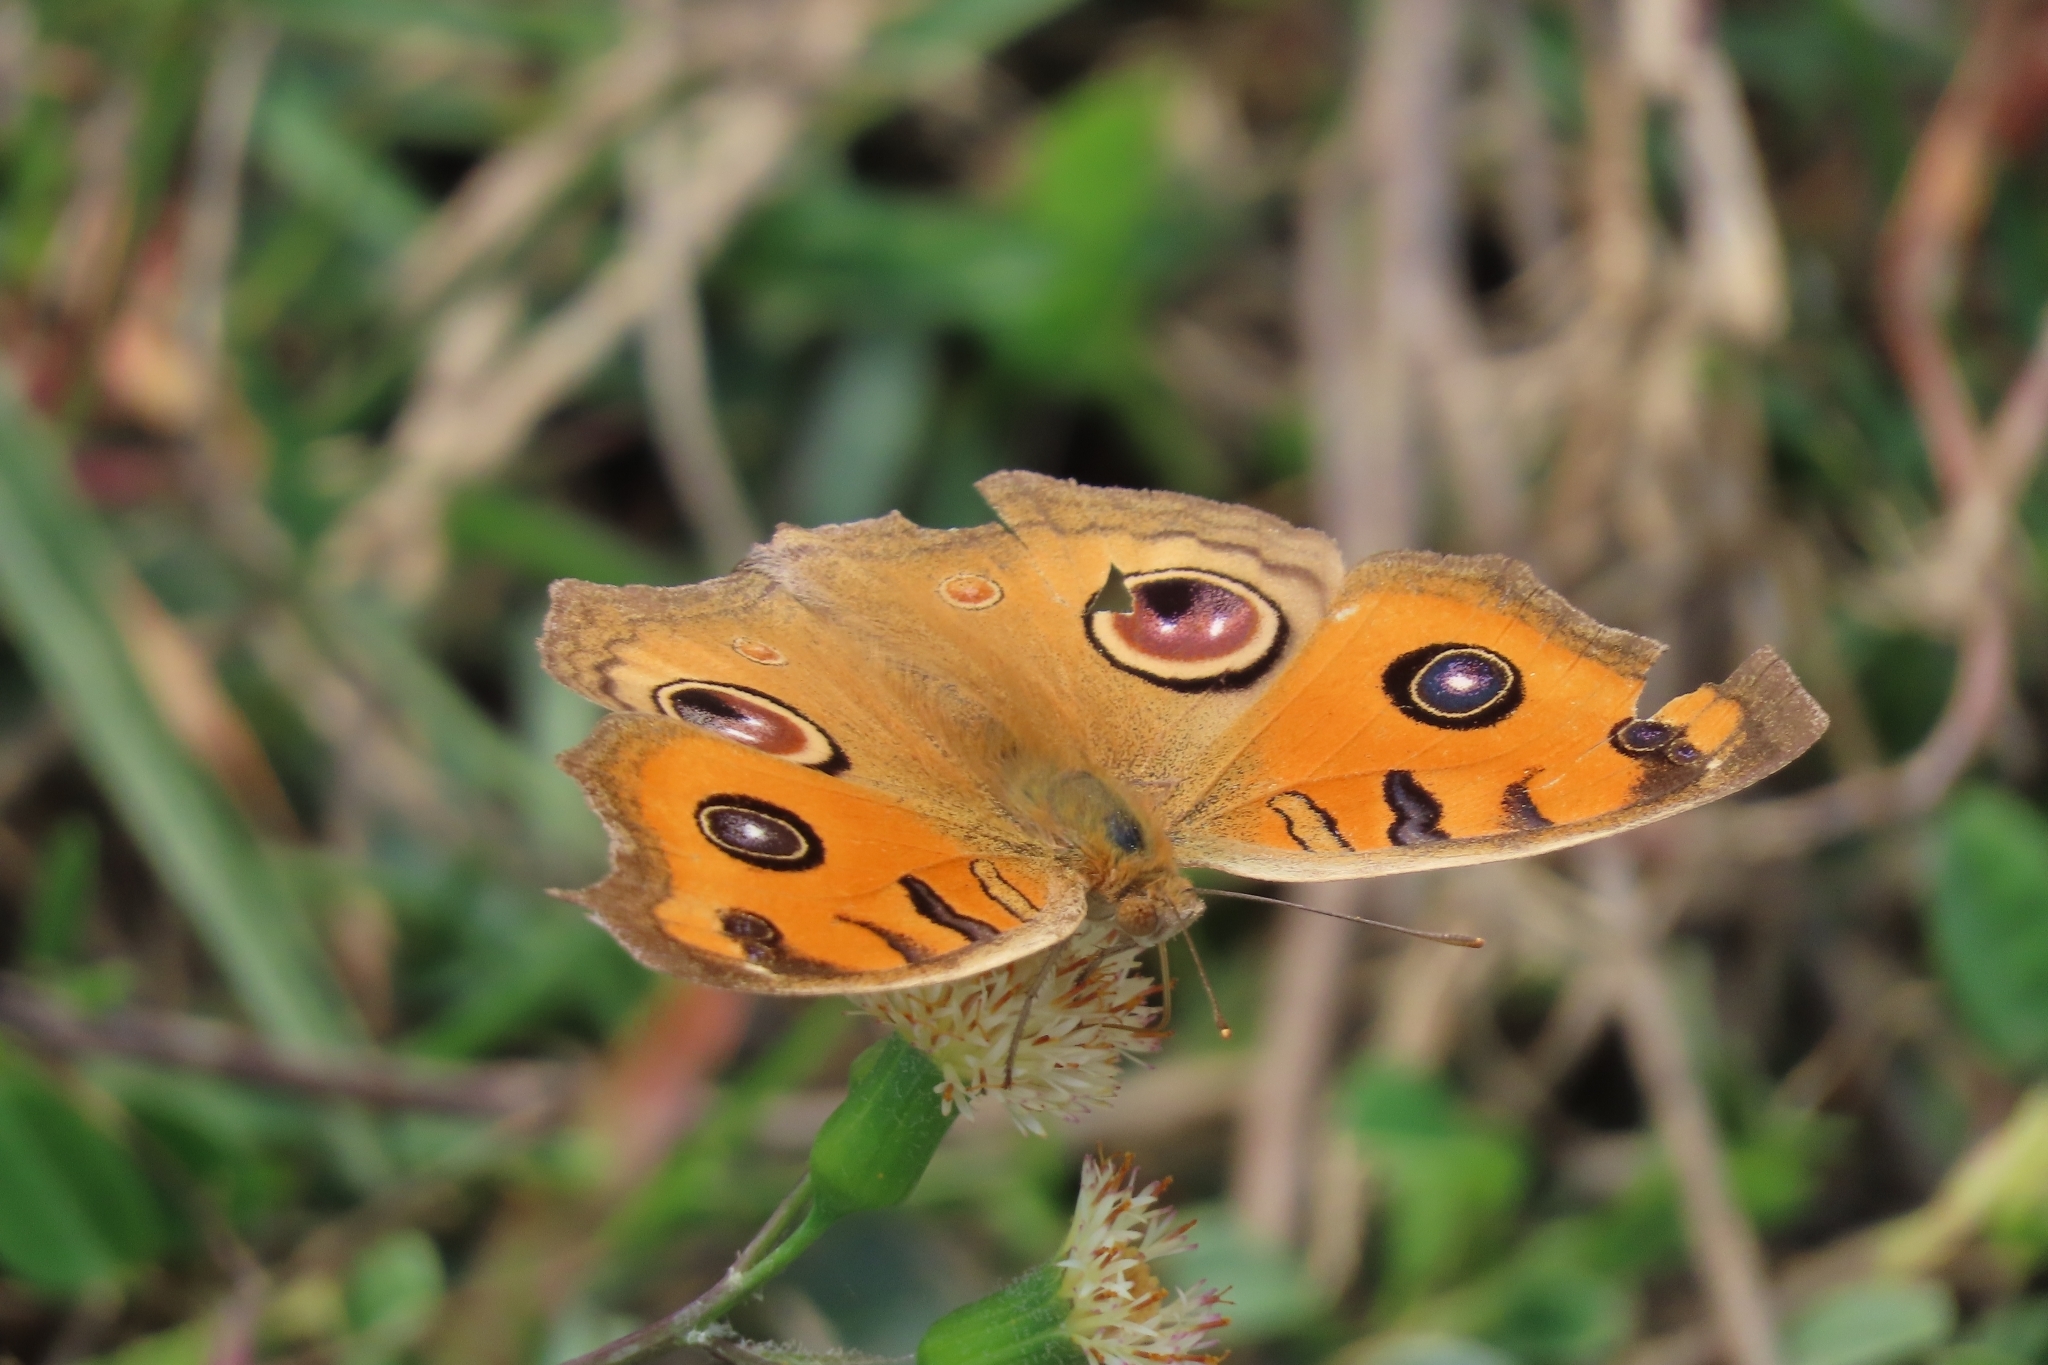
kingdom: Animalia
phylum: Arthropoda
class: Insecta
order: Lepidoptera
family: Nymphalidae
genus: Junonia
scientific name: Junonia almana
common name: Peacock pansy
